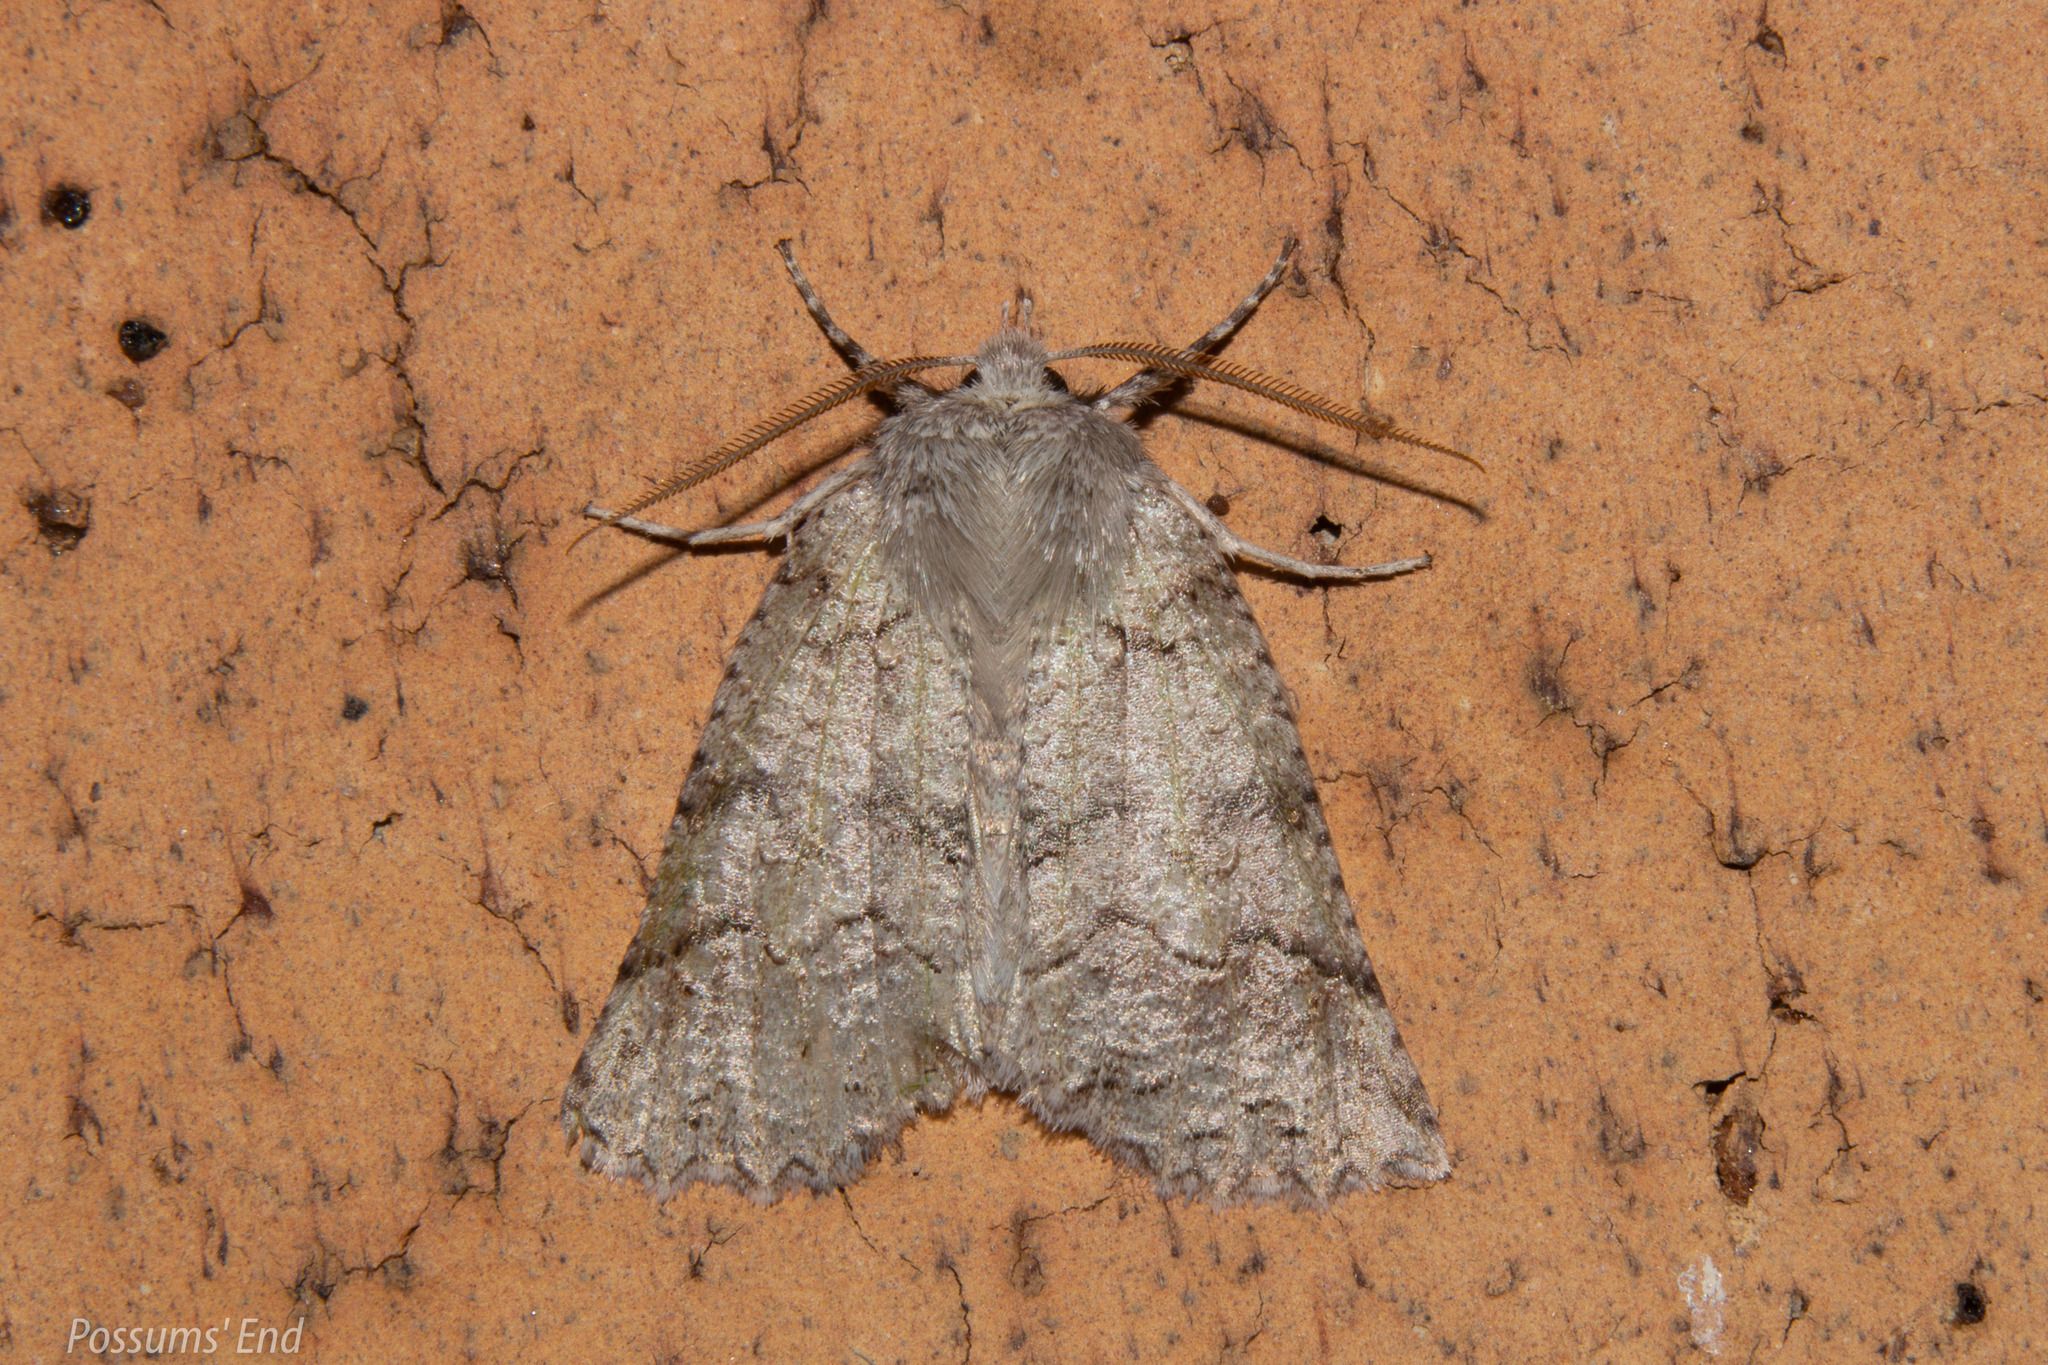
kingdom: Animalia
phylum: Arthropoda
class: Insecta
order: Lepidoptera
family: Geometridae
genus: Declana
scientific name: Declana floccosa
